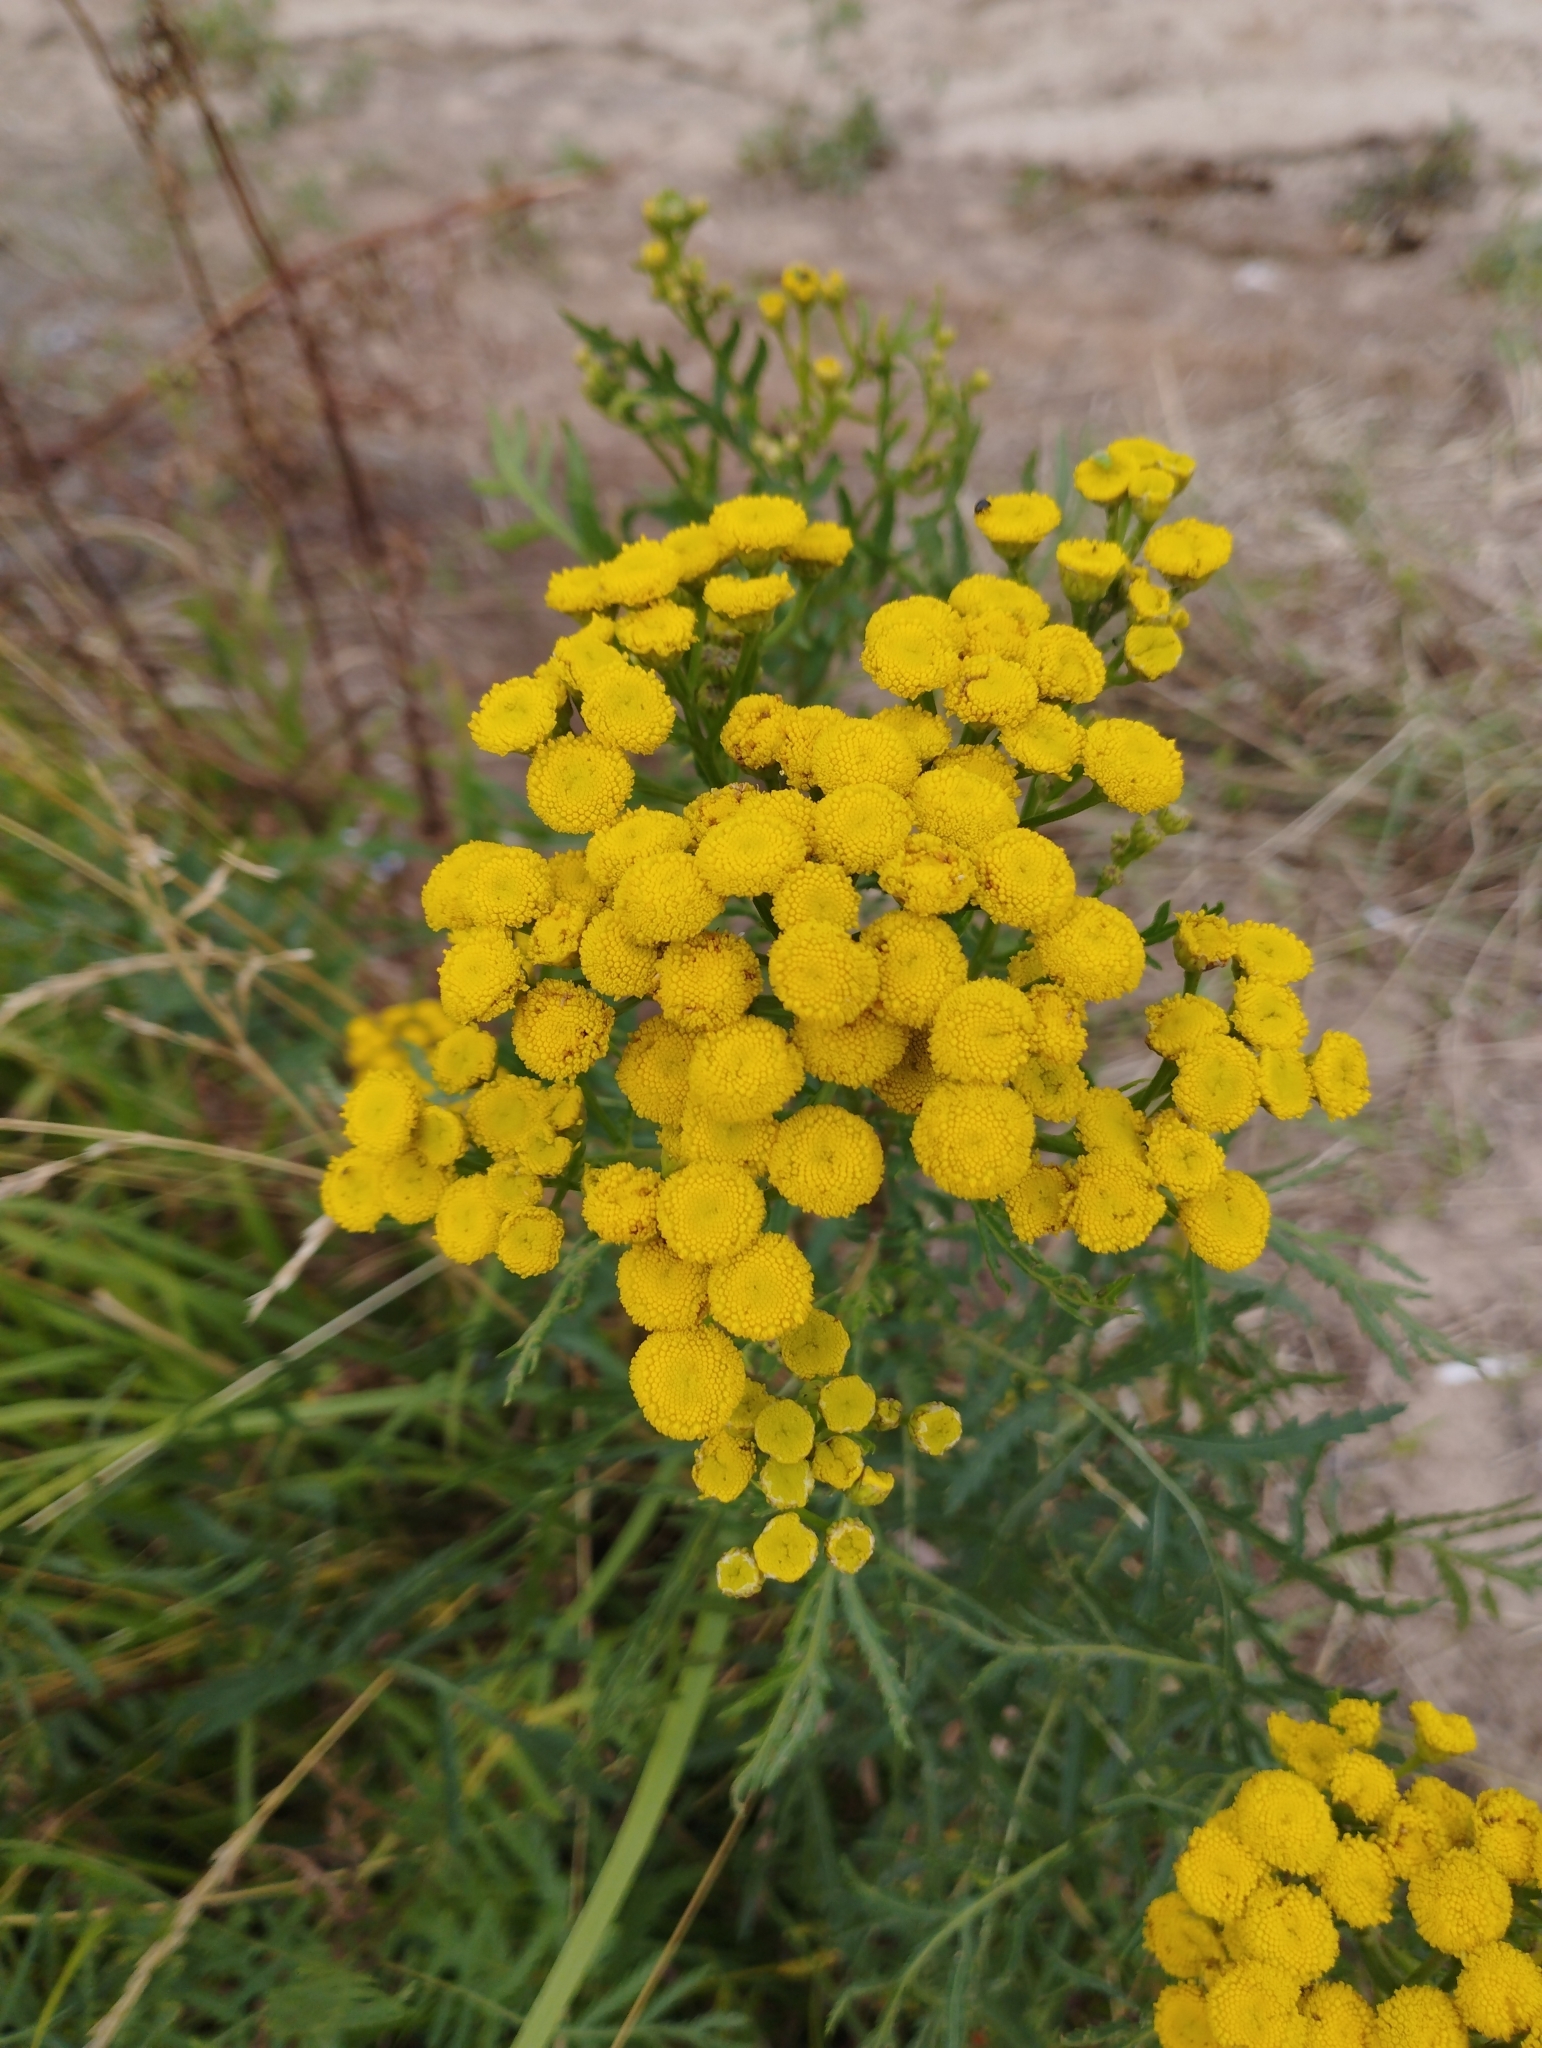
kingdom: Plantae
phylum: Tracheophyta
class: Magnoliopsida
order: Asterales
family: Asteraceae
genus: Tanacetum
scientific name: Tanacetum vulgare
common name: Common tansy
